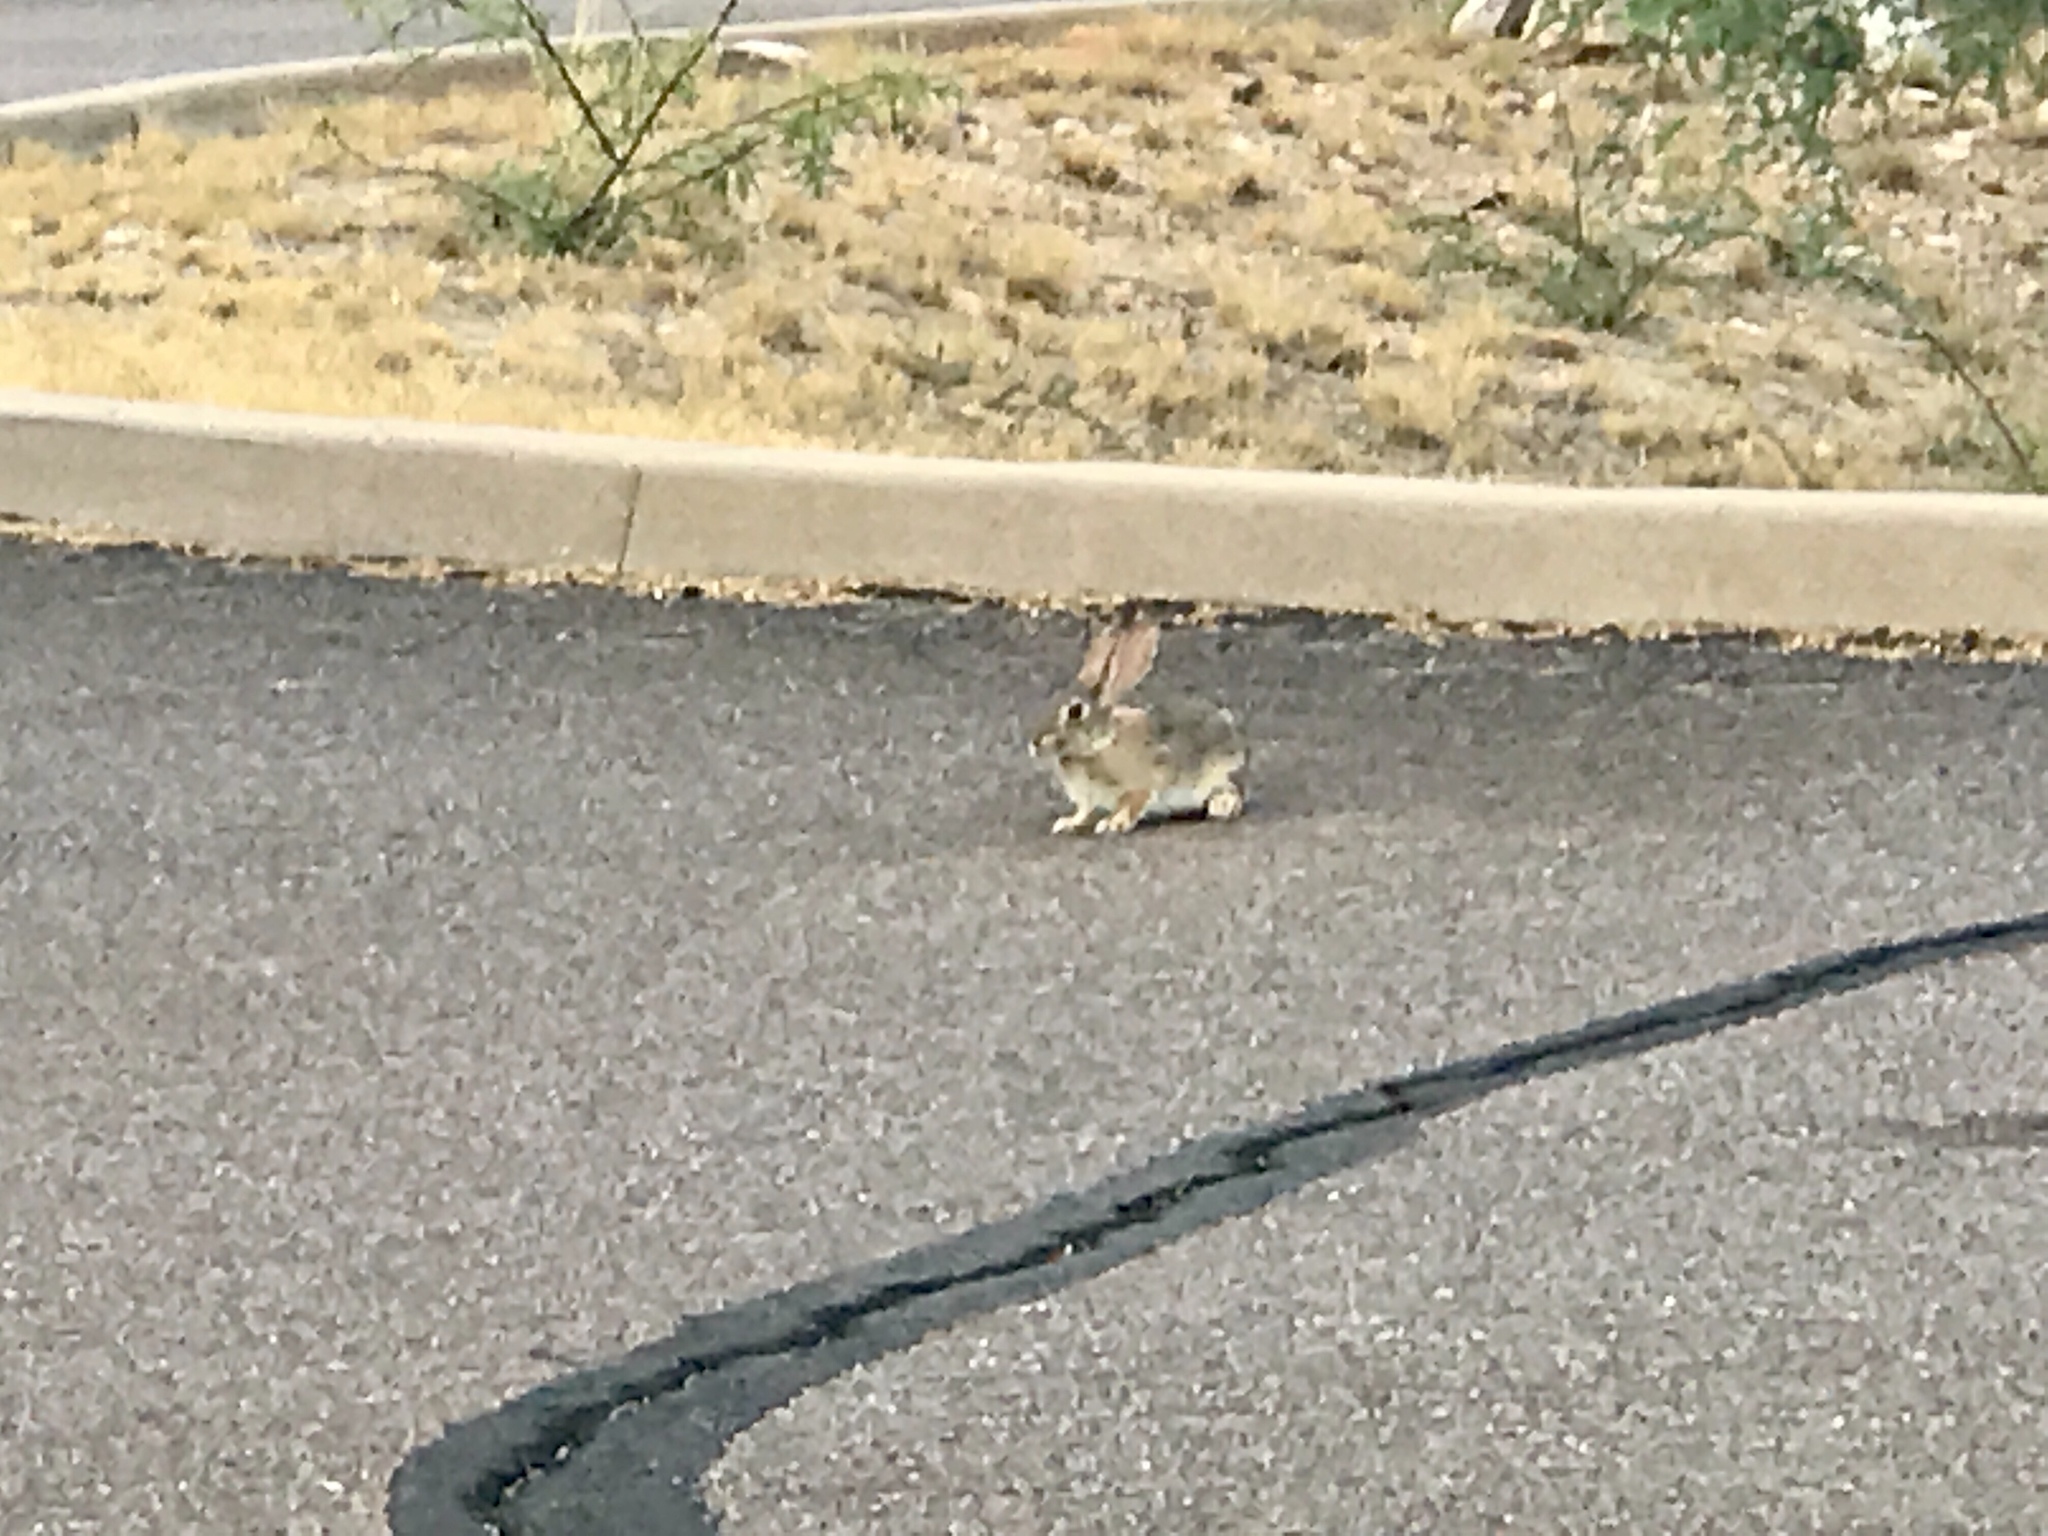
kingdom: Animalia
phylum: Chordata
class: Mammalia
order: Lagomorpha
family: Leporidae
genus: Sylvilagus
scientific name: Sylvilagus audubonii
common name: Desert cottontail
